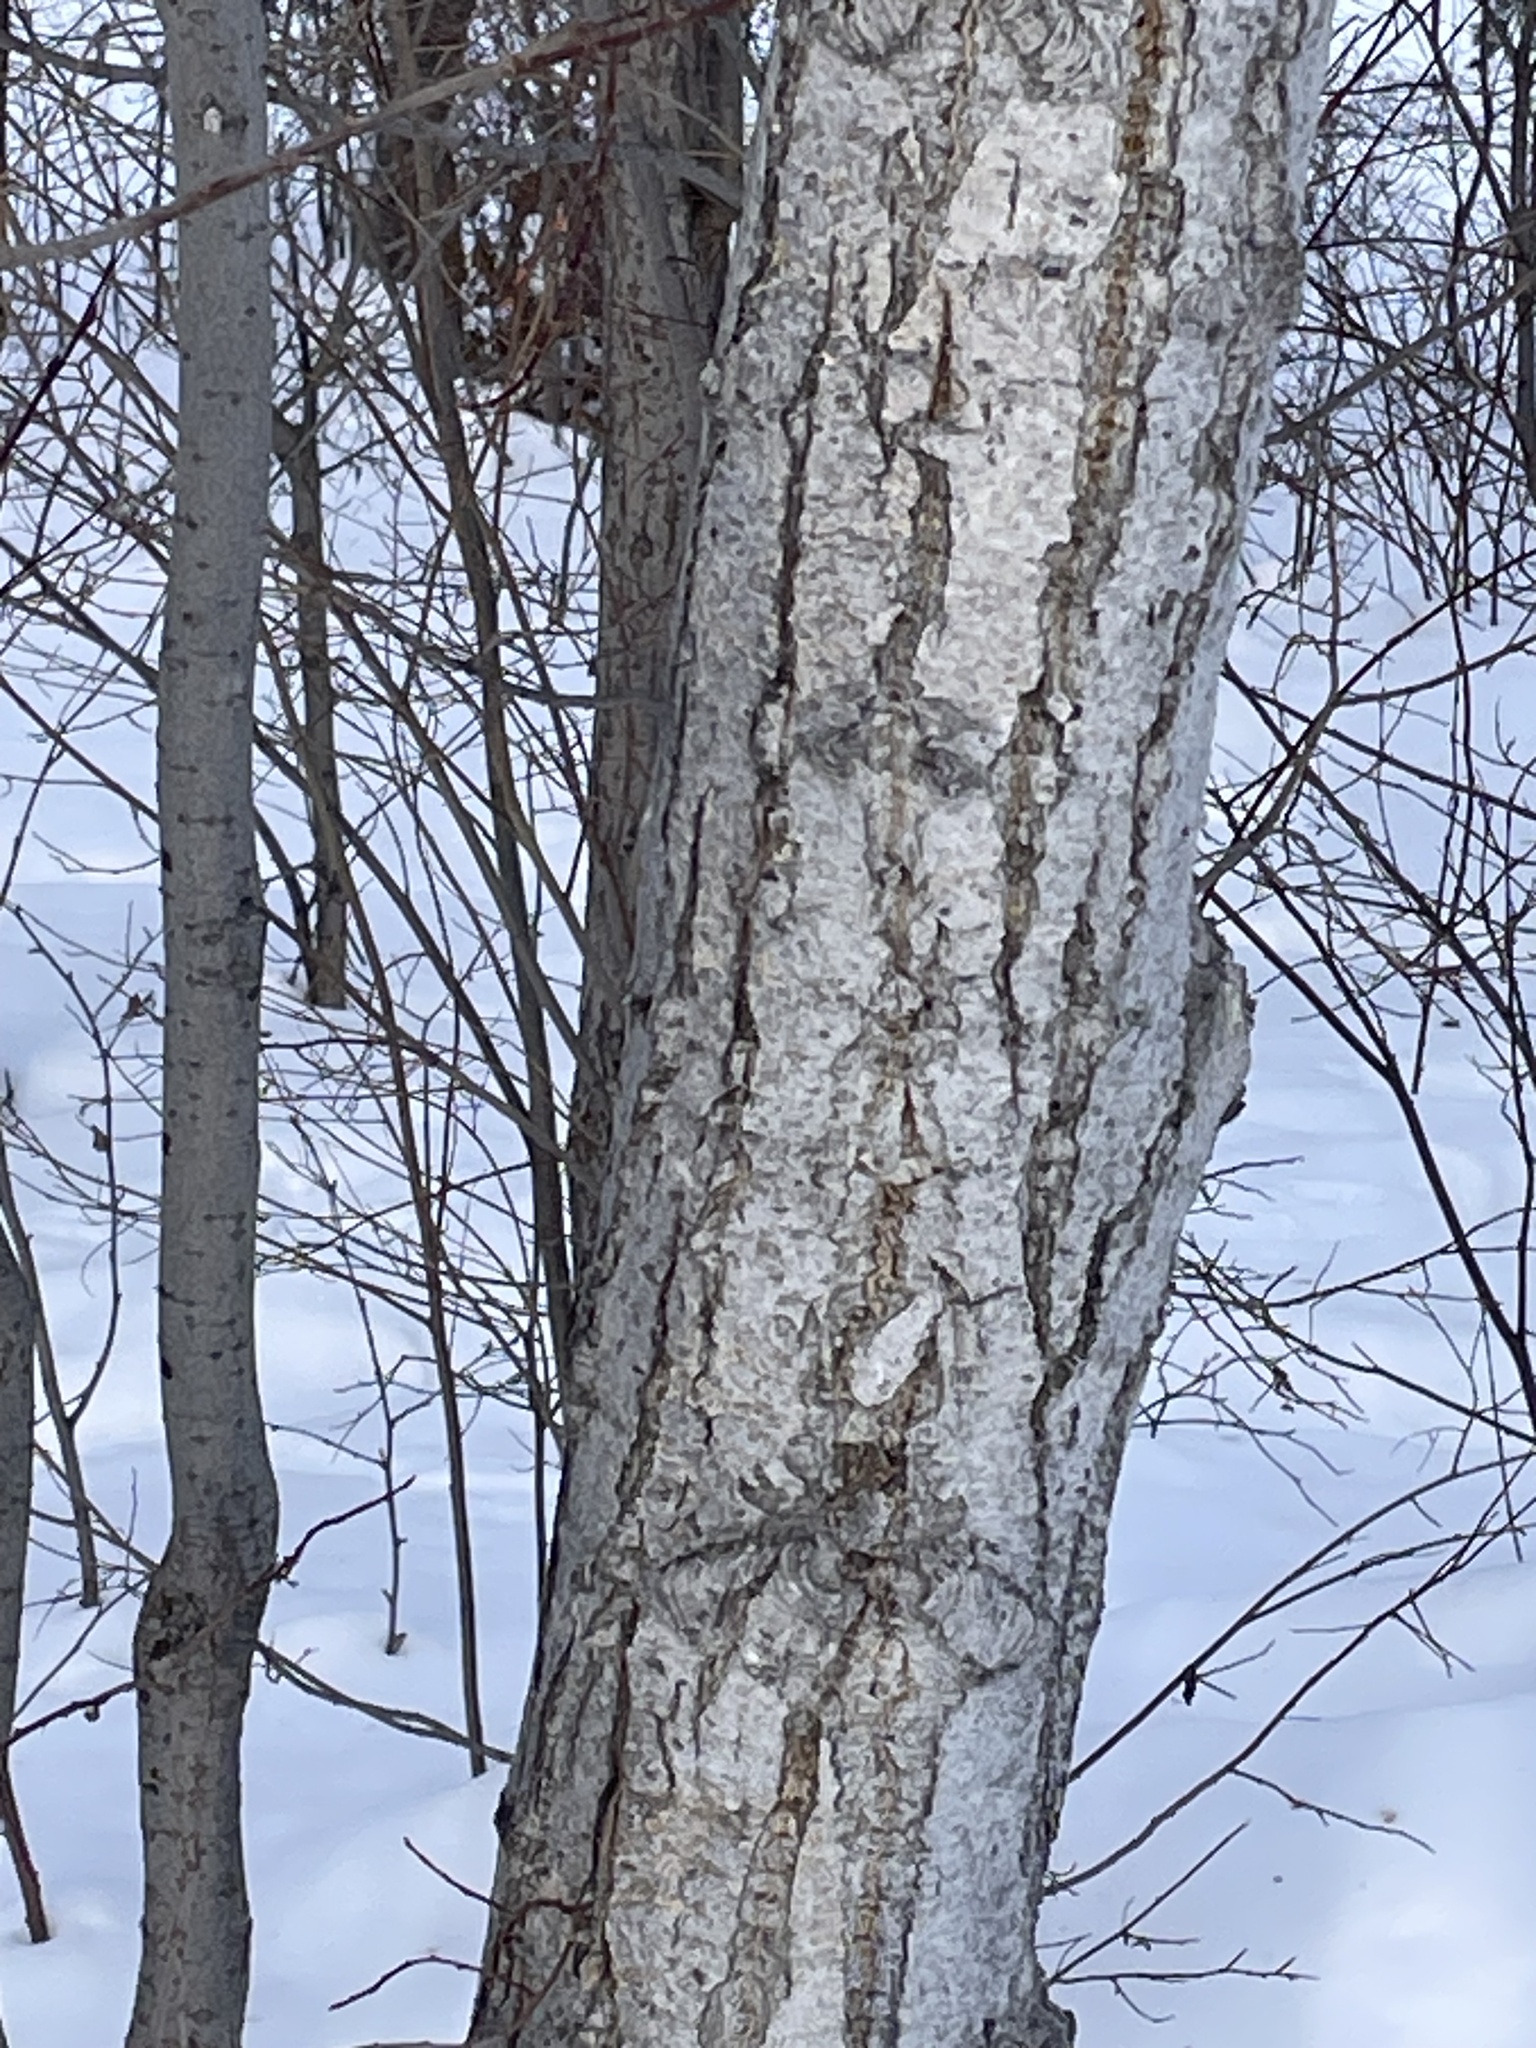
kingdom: Plantae
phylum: Tracheophyta
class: Magnoliopsida
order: Malpighiales
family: Salicaceae
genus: Populus
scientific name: Populus balsamifera
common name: Balsam poplar
